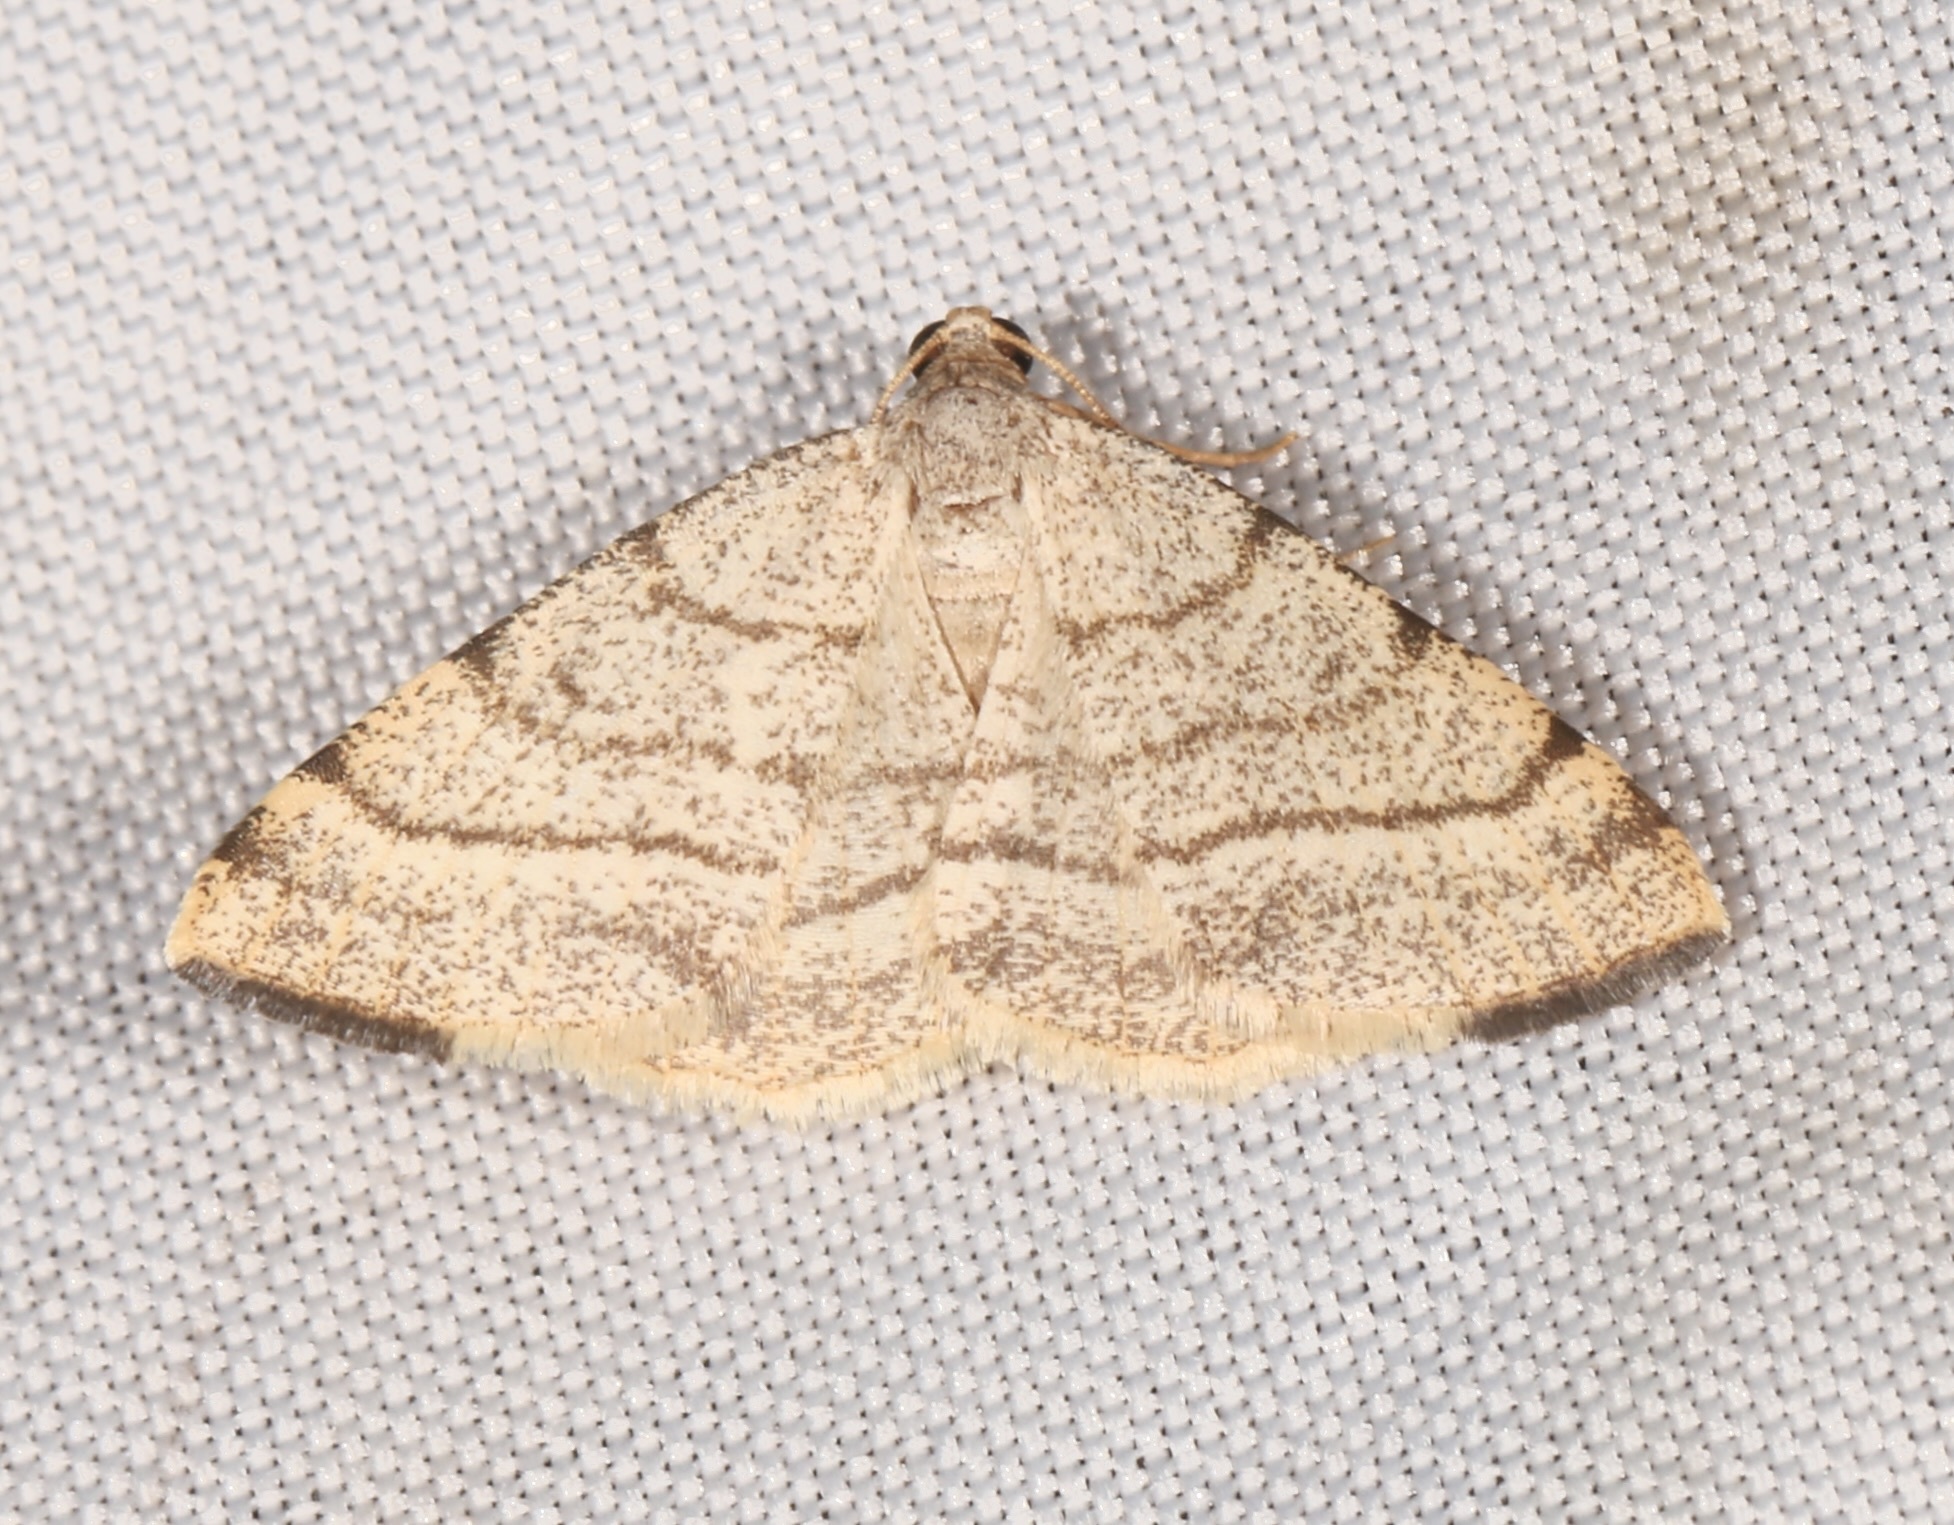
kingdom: Animalia
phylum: Arthropoda
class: Insecta
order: Lepidoptera
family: Geometridae
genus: Macaria
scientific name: Macaria octolineata
